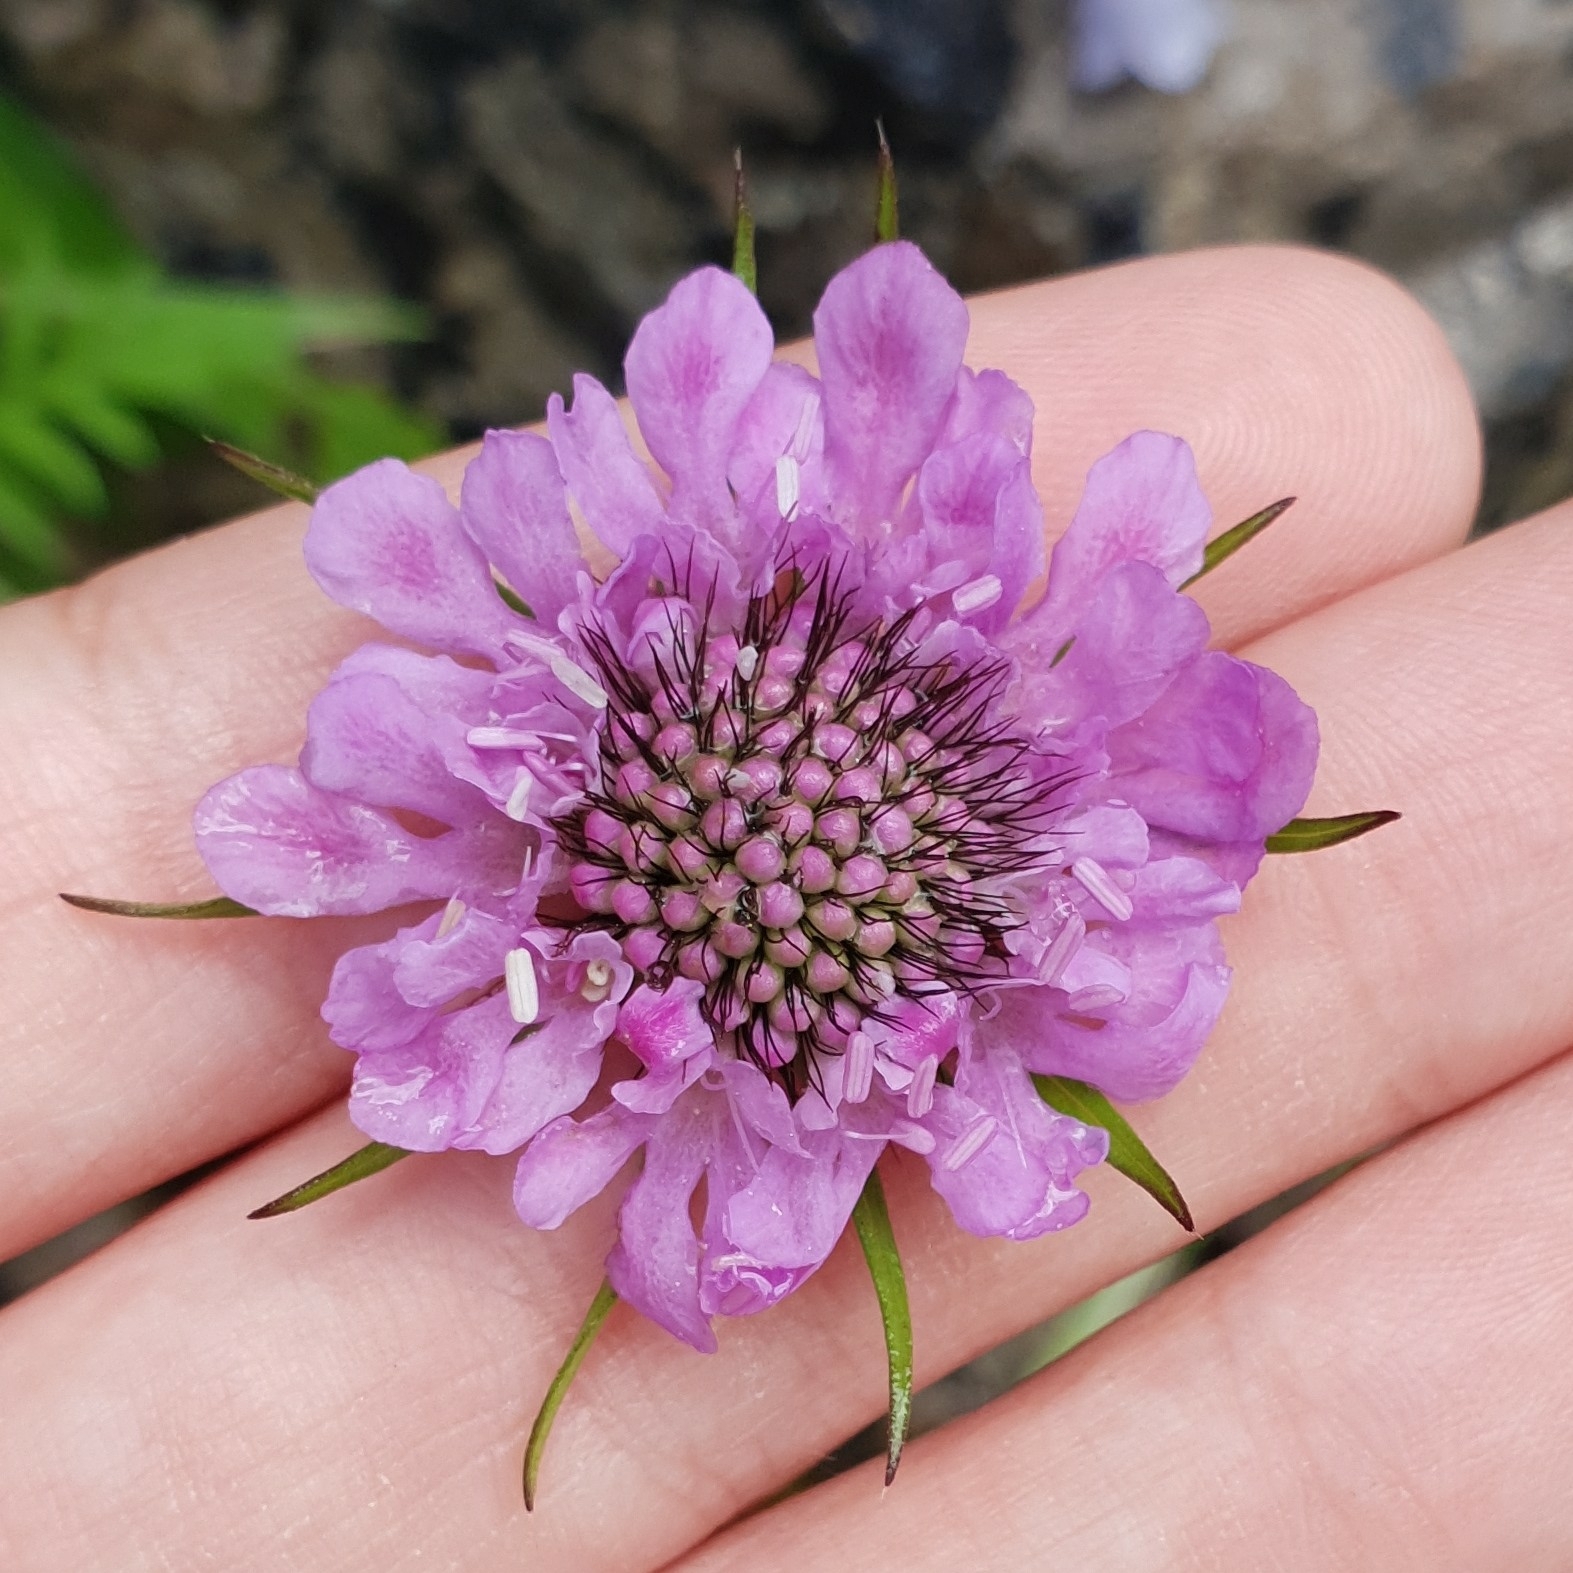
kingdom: Plantae
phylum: Tracheophyta
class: Magnoliopsida
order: Dipsacales
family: Caprifoliaceae
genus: Scabiosa
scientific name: Scabiosa lucida
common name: Shining scabious
